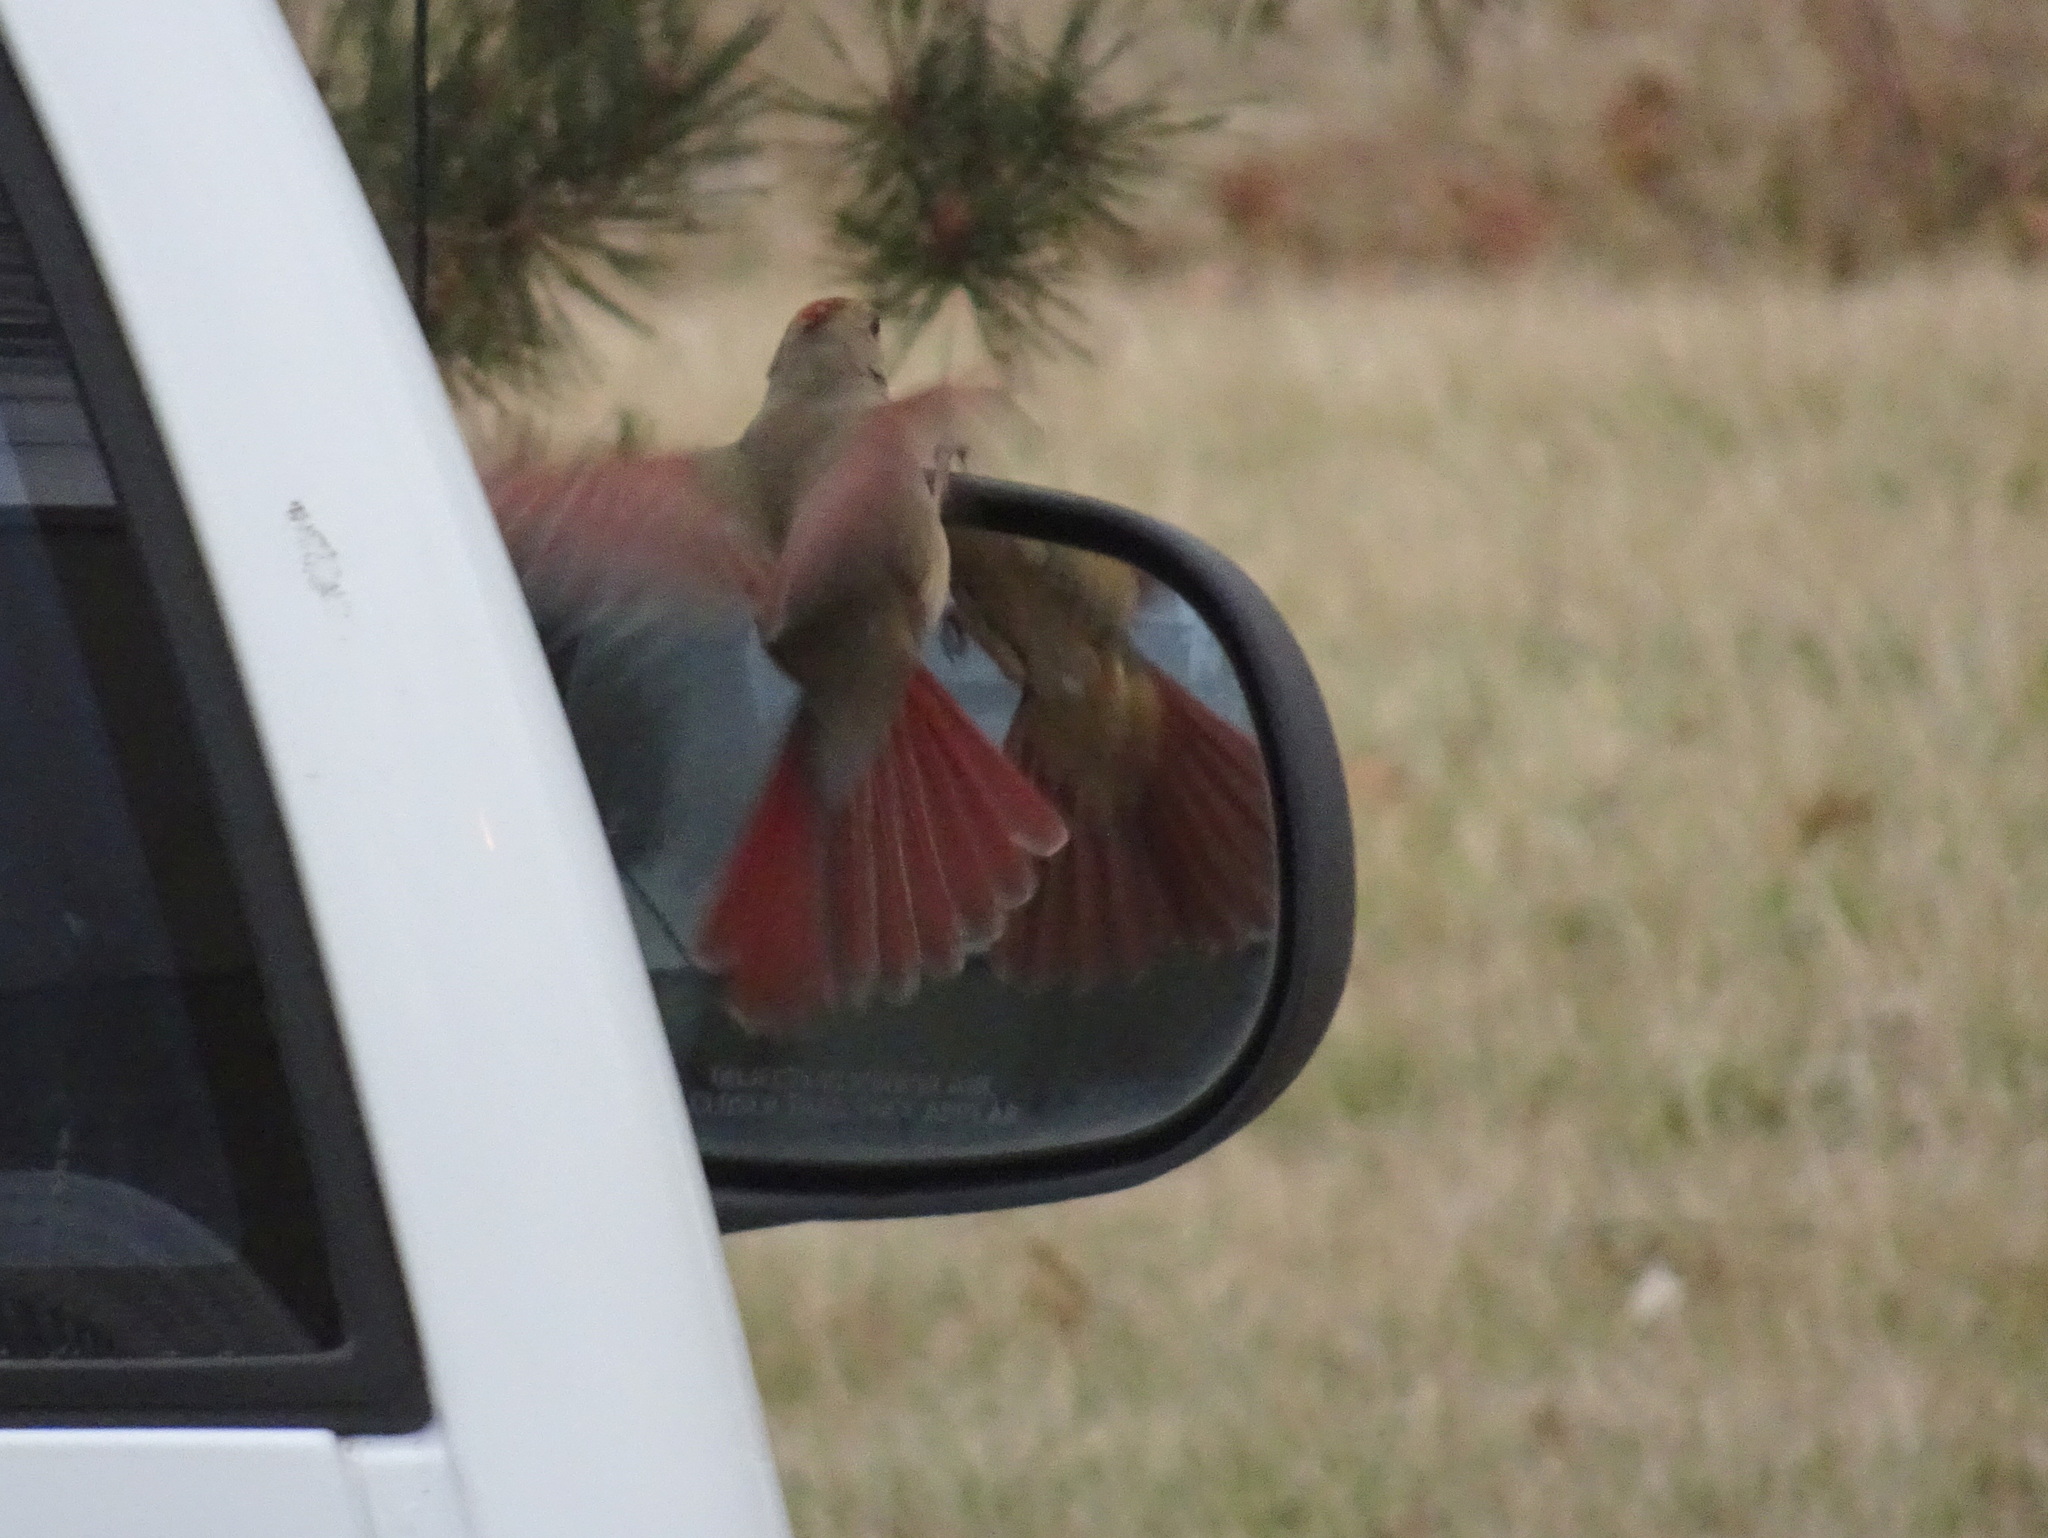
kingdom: Animalia
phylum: Chordata
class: Aves
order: Passeriformes
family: Cardinalidae
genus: Cardinalis
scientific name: Cardinalis cardinalis
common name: Northern cardinal
